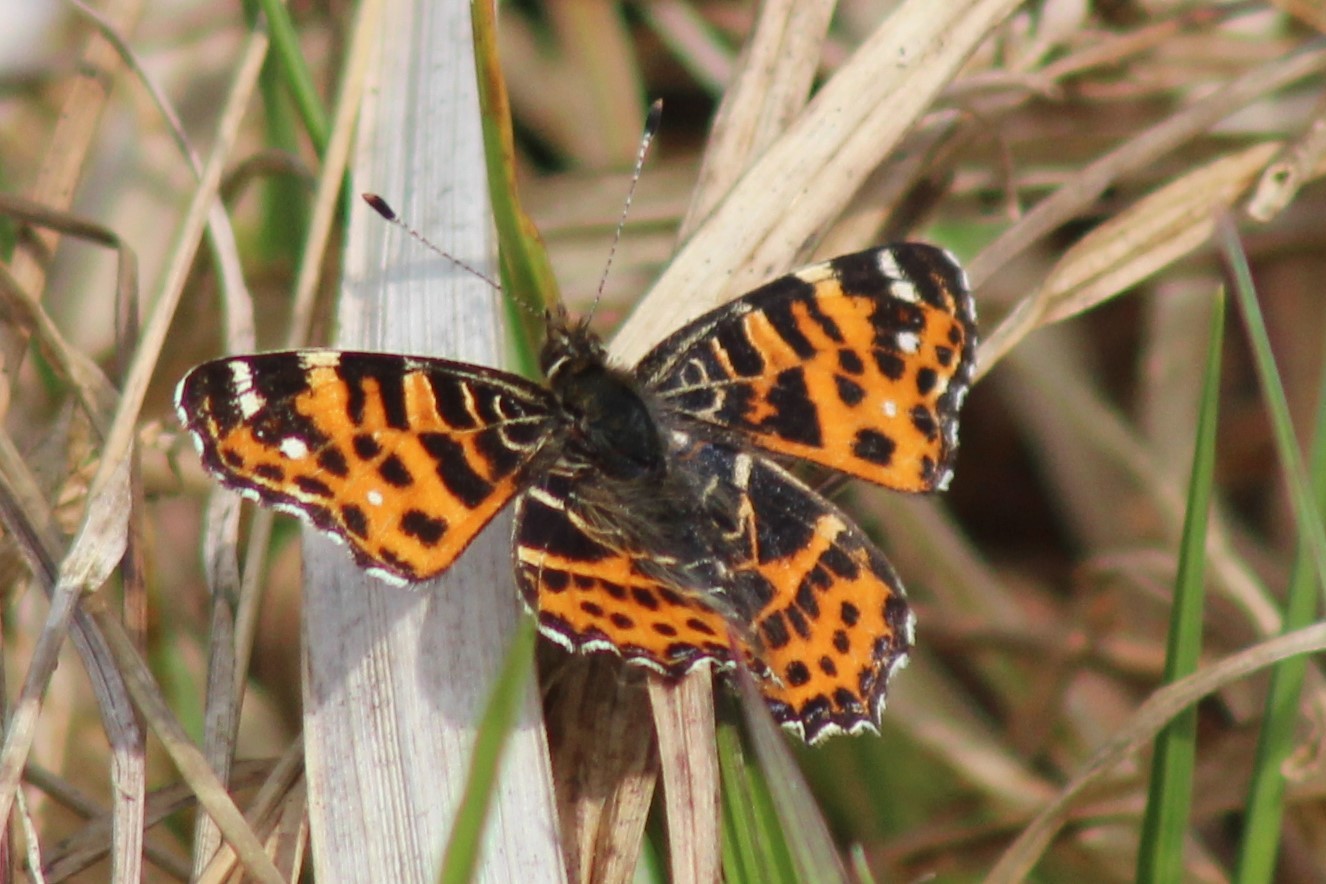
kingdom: Animalia
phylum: Arthropoda
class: Insecta
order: Lepidoptera
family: Nymphalidae
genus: Araschnia
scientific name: Araschnia levana
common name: Map butterfly
